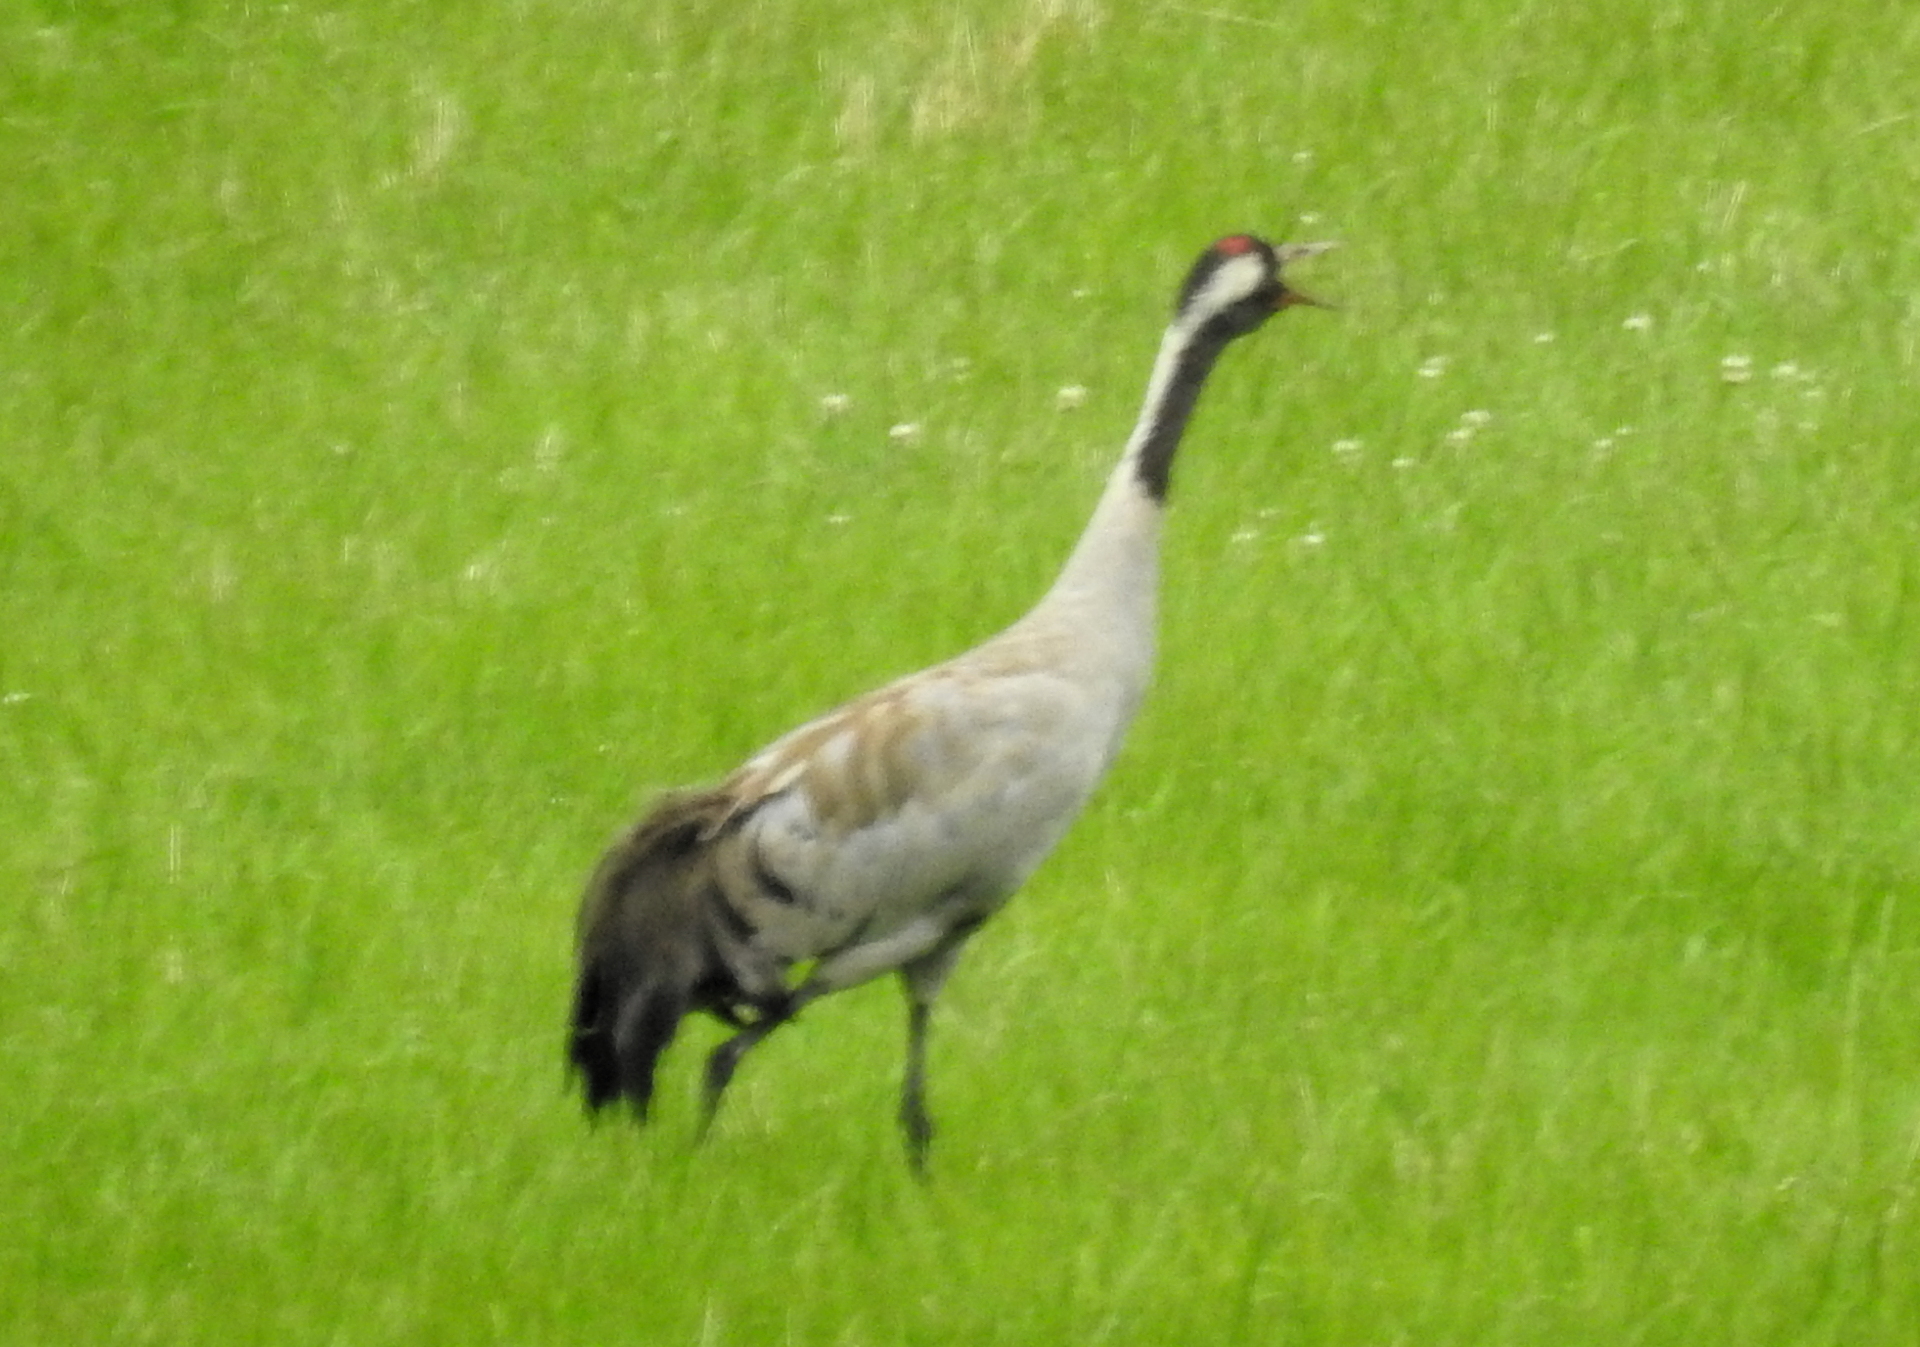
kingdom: Animalia
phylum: Chordata
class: Aves
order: Gruiformes
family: Gruidae
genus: Grus
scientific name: Grus grus
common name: Common crane
